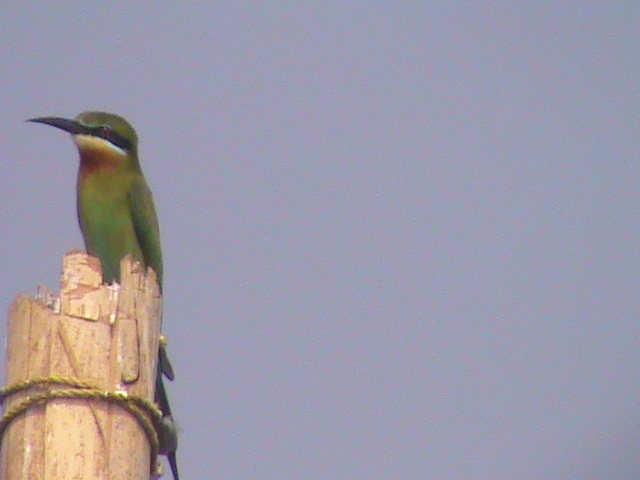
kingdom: Animalia
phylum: Chordata
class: Aves
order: Coraciiformes
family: Meropidae
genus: Merops
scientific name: Merops philippinus
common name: Blue-tailed bee-eater
